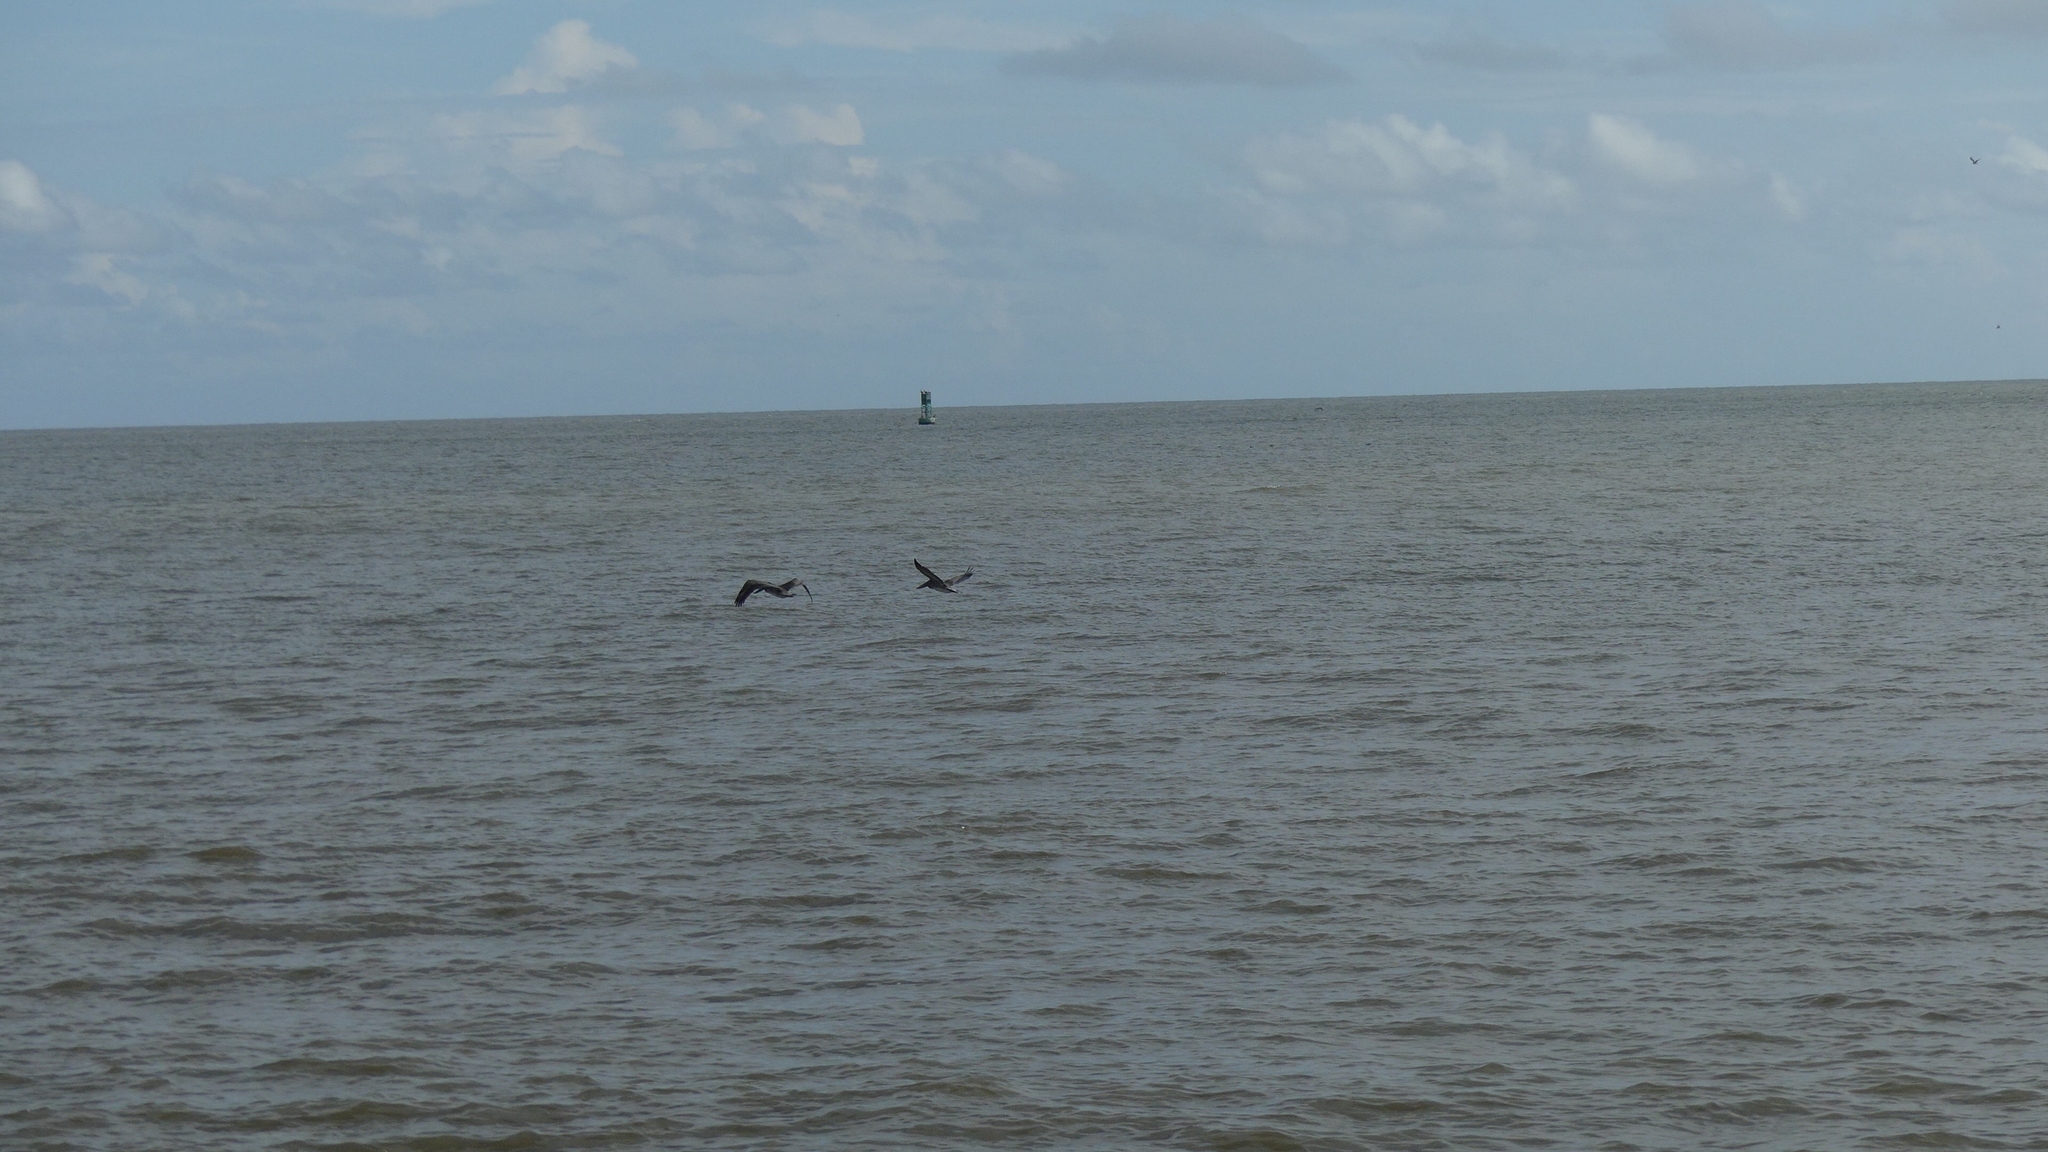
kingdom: Animalia
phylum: Chordata
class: Aves
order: Pelecaniformes
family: Pelecanidae
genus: Pelecanus
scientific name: Pelecanus occidentalis
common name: Brown pelican
